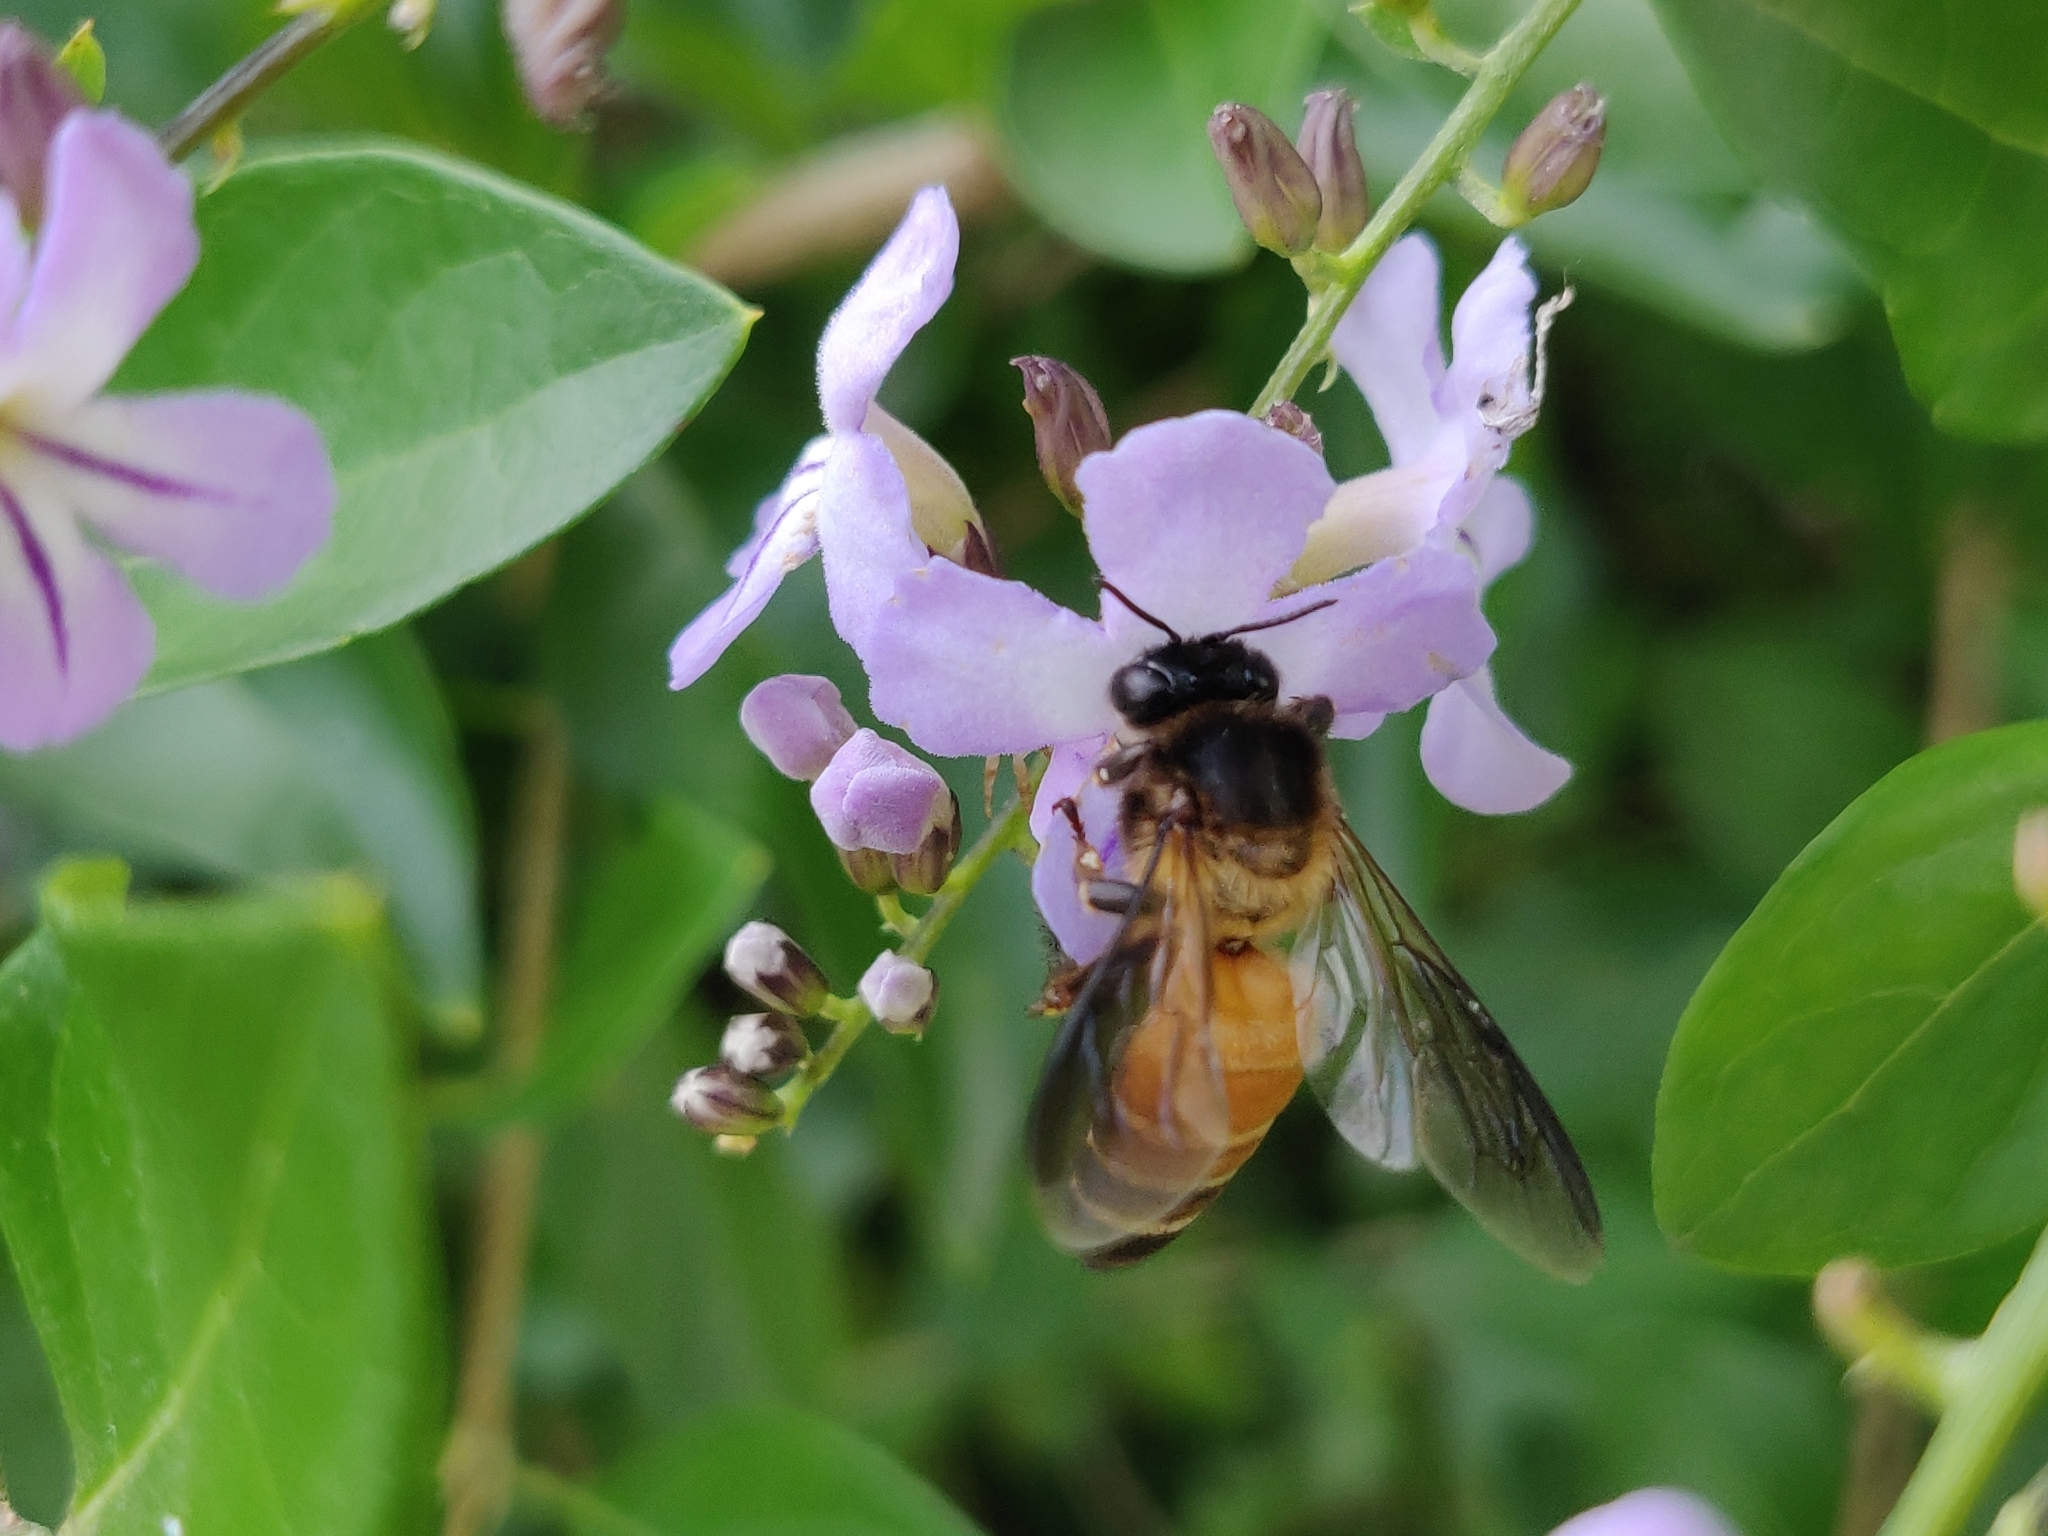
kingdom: Animalia
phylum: Arthropoda
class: Insecta
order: Hymenoptera
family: Apidae
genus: Apis
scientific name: Apis dorsata
